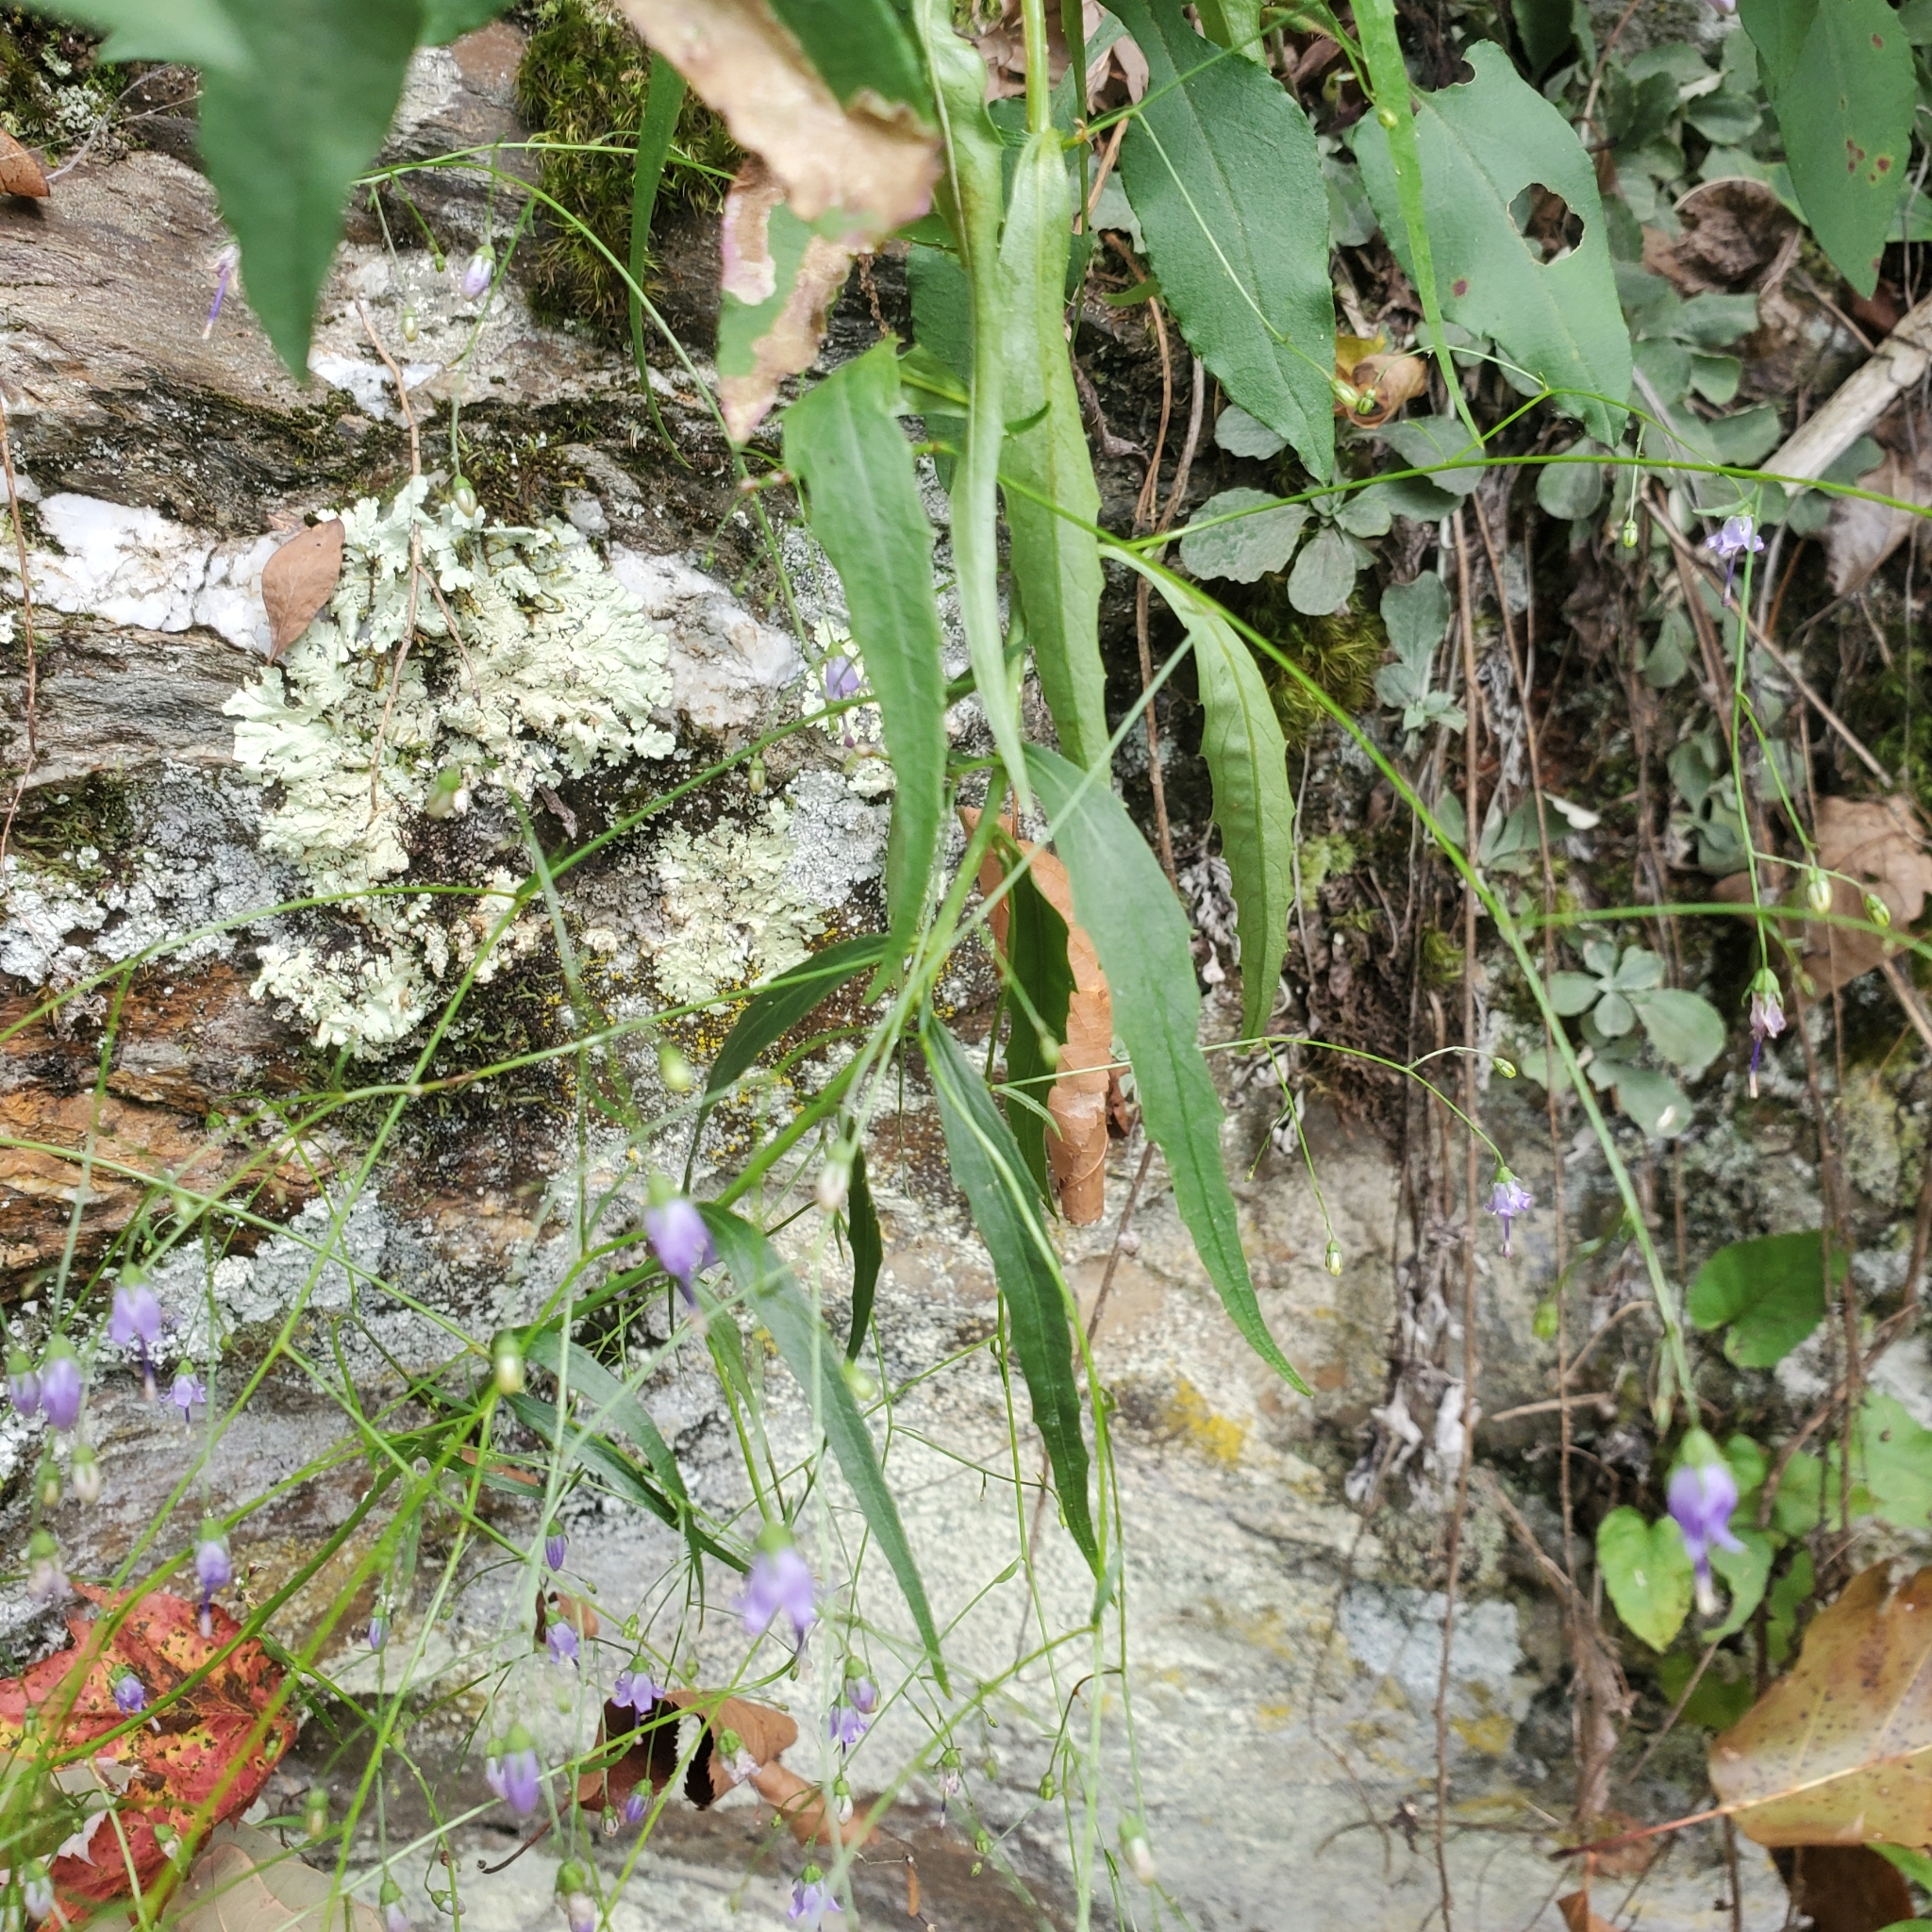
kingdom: Plantae
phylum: Tracheophyta
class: Magnoliopsida
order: Asterales
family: Campanulaceae
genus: Campanula
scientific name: Campanula divaricata
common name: Appalachian bellflower
